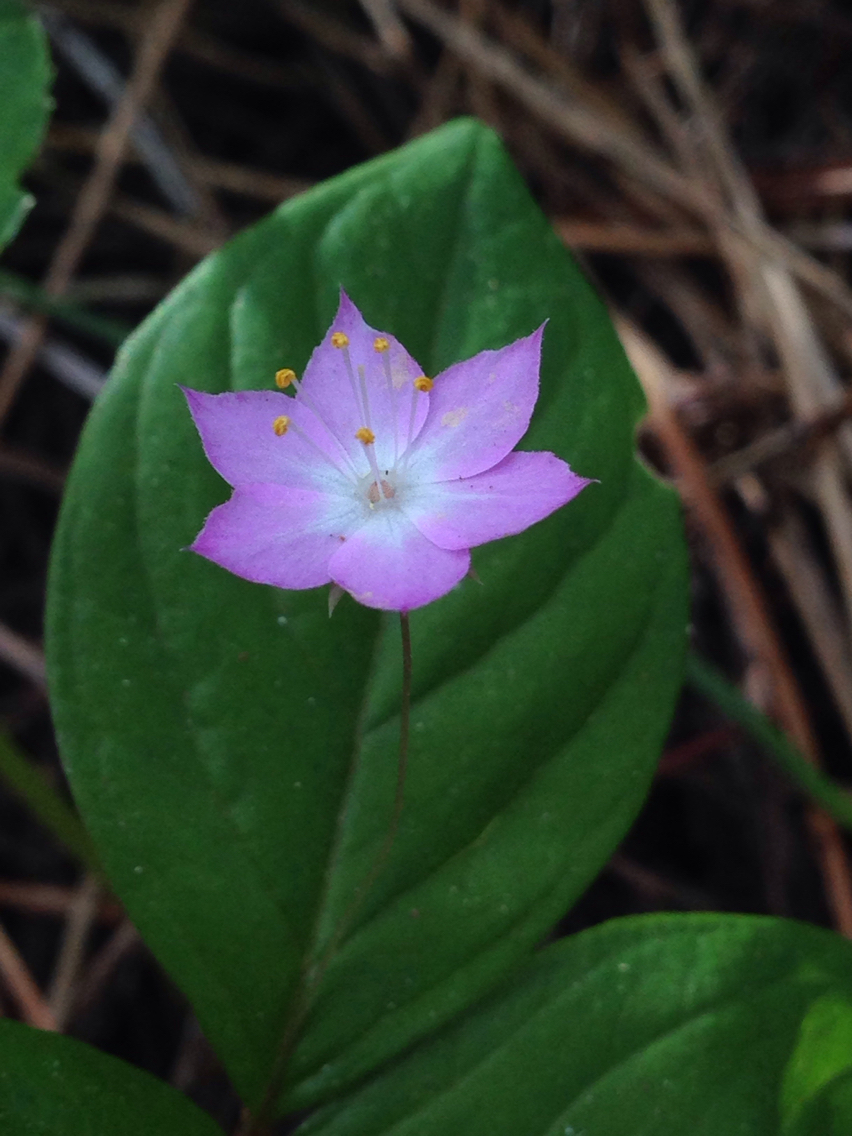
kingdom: Plantae
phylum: Tracheophyta
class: Magnoliopsida
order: Ericales
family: Primulaceae
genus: Lysimachia
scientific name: Lysimachia latifolia
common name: Pacific starflower
